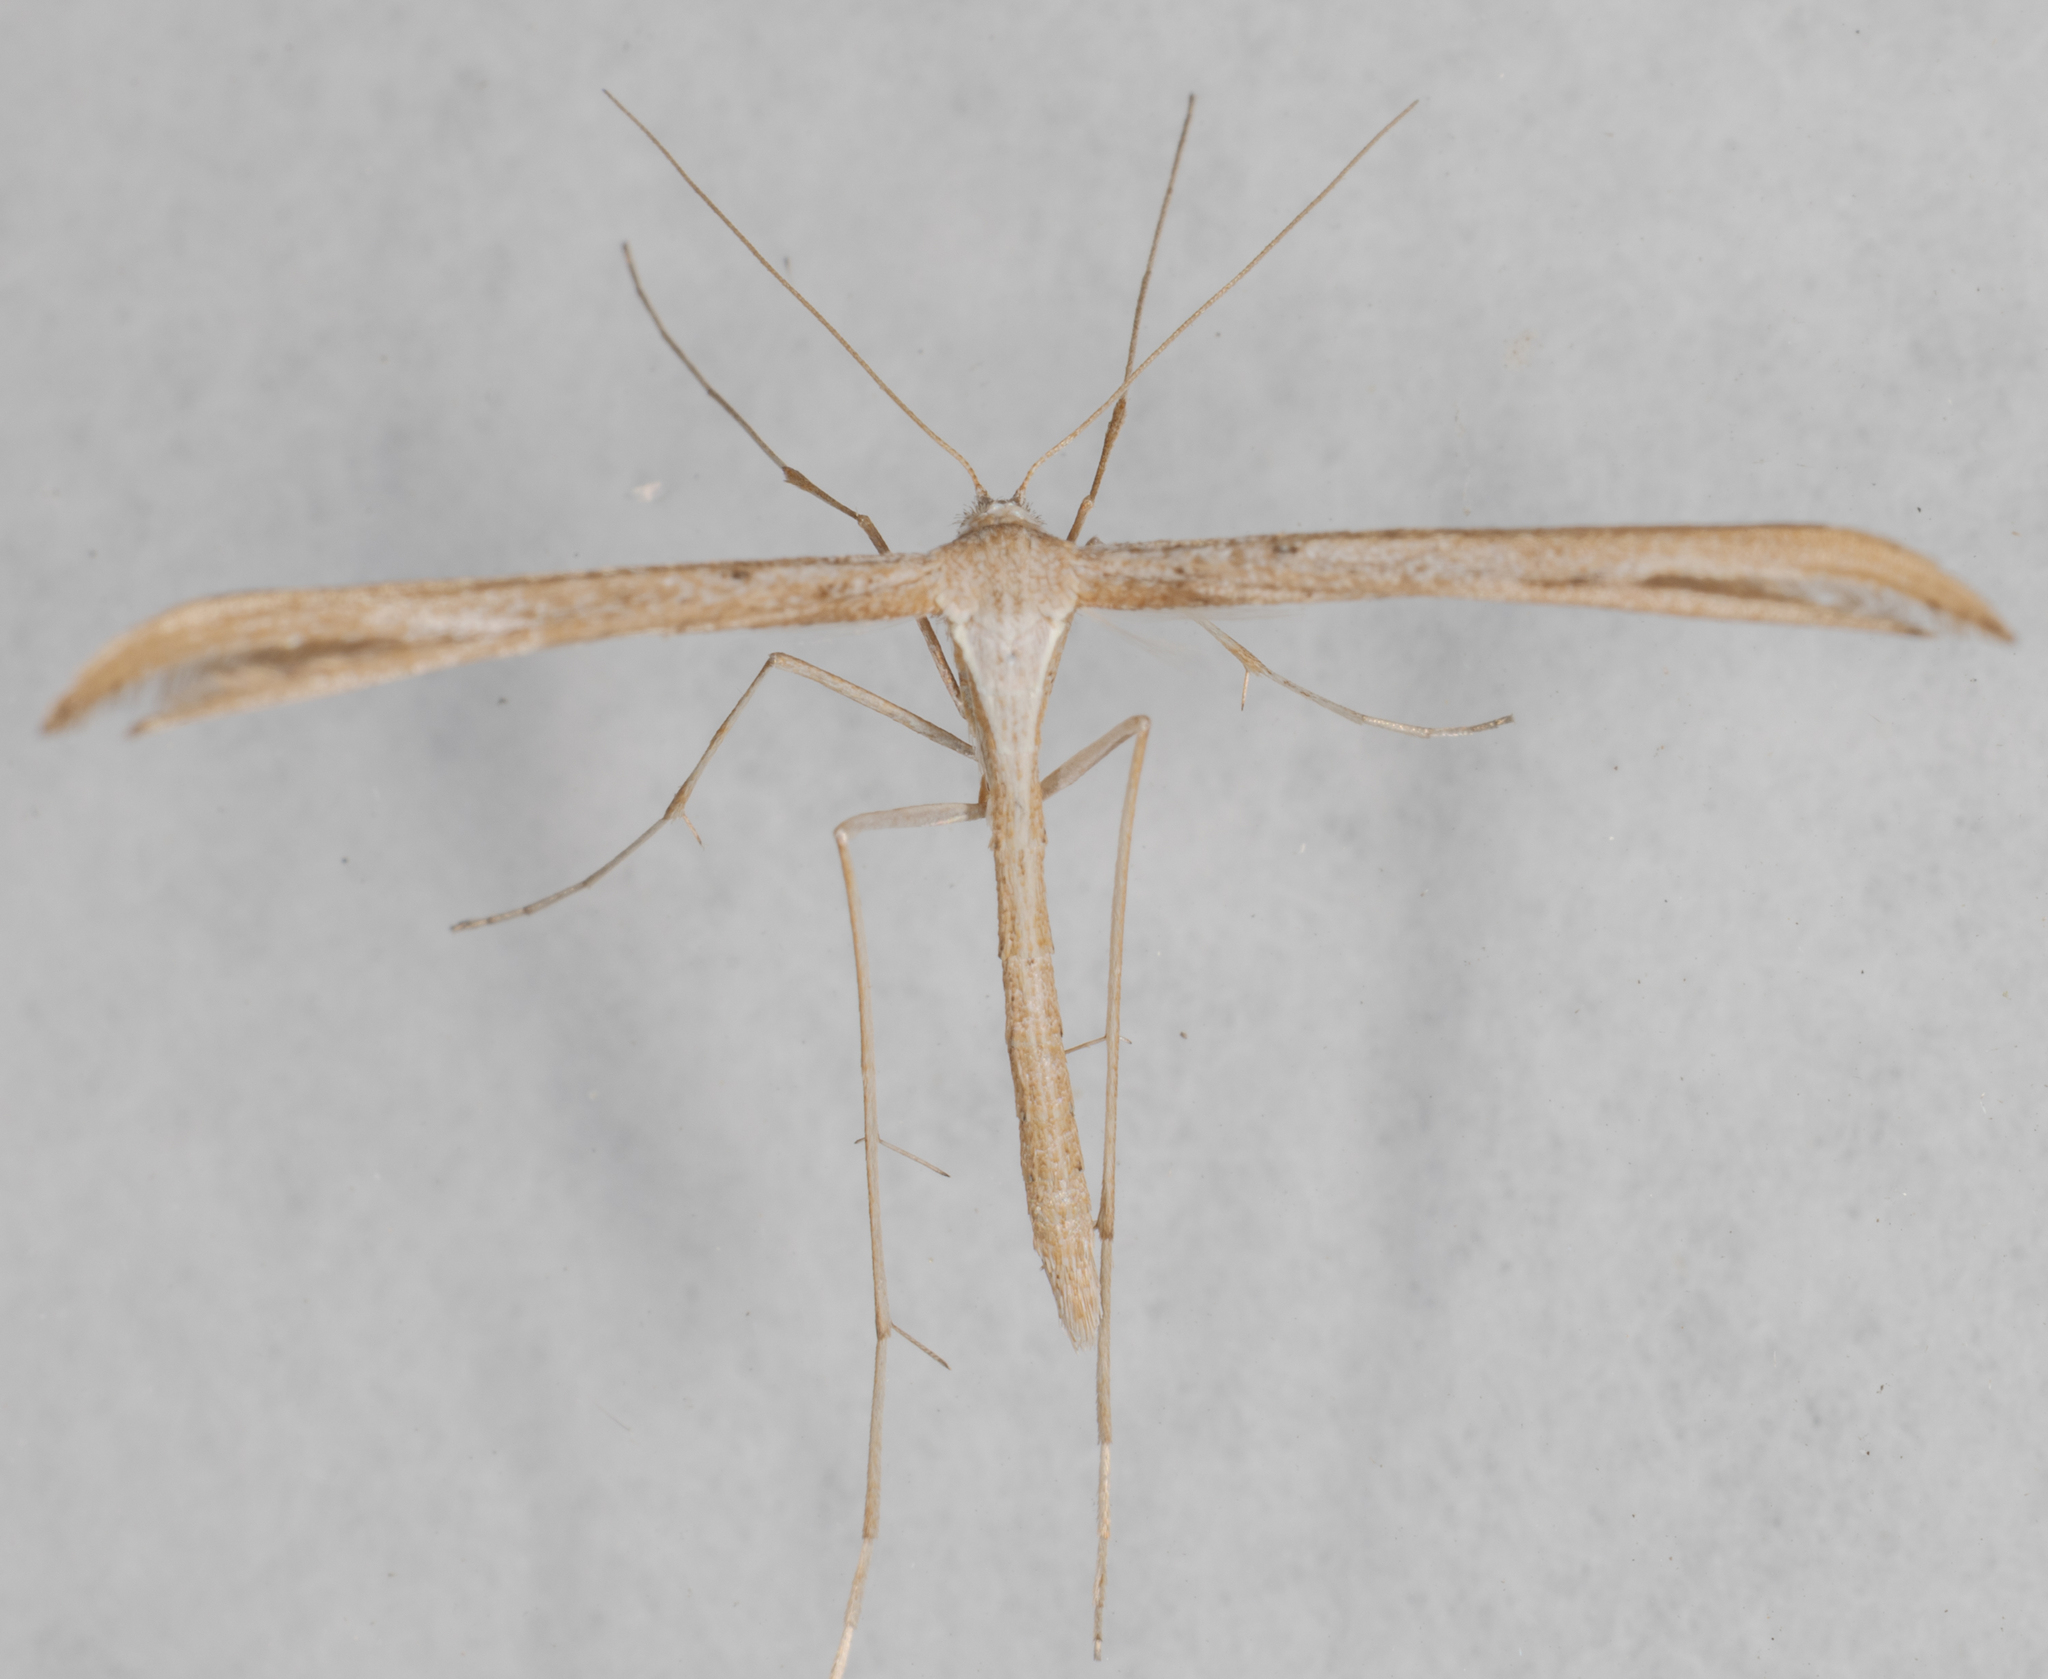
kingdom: Animalia
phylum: Arthropoda
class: Insecta
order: Lepidoptera
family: Pterophoridae
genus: Emmelina
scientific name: Emmelina monodactyla
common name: Common plume
